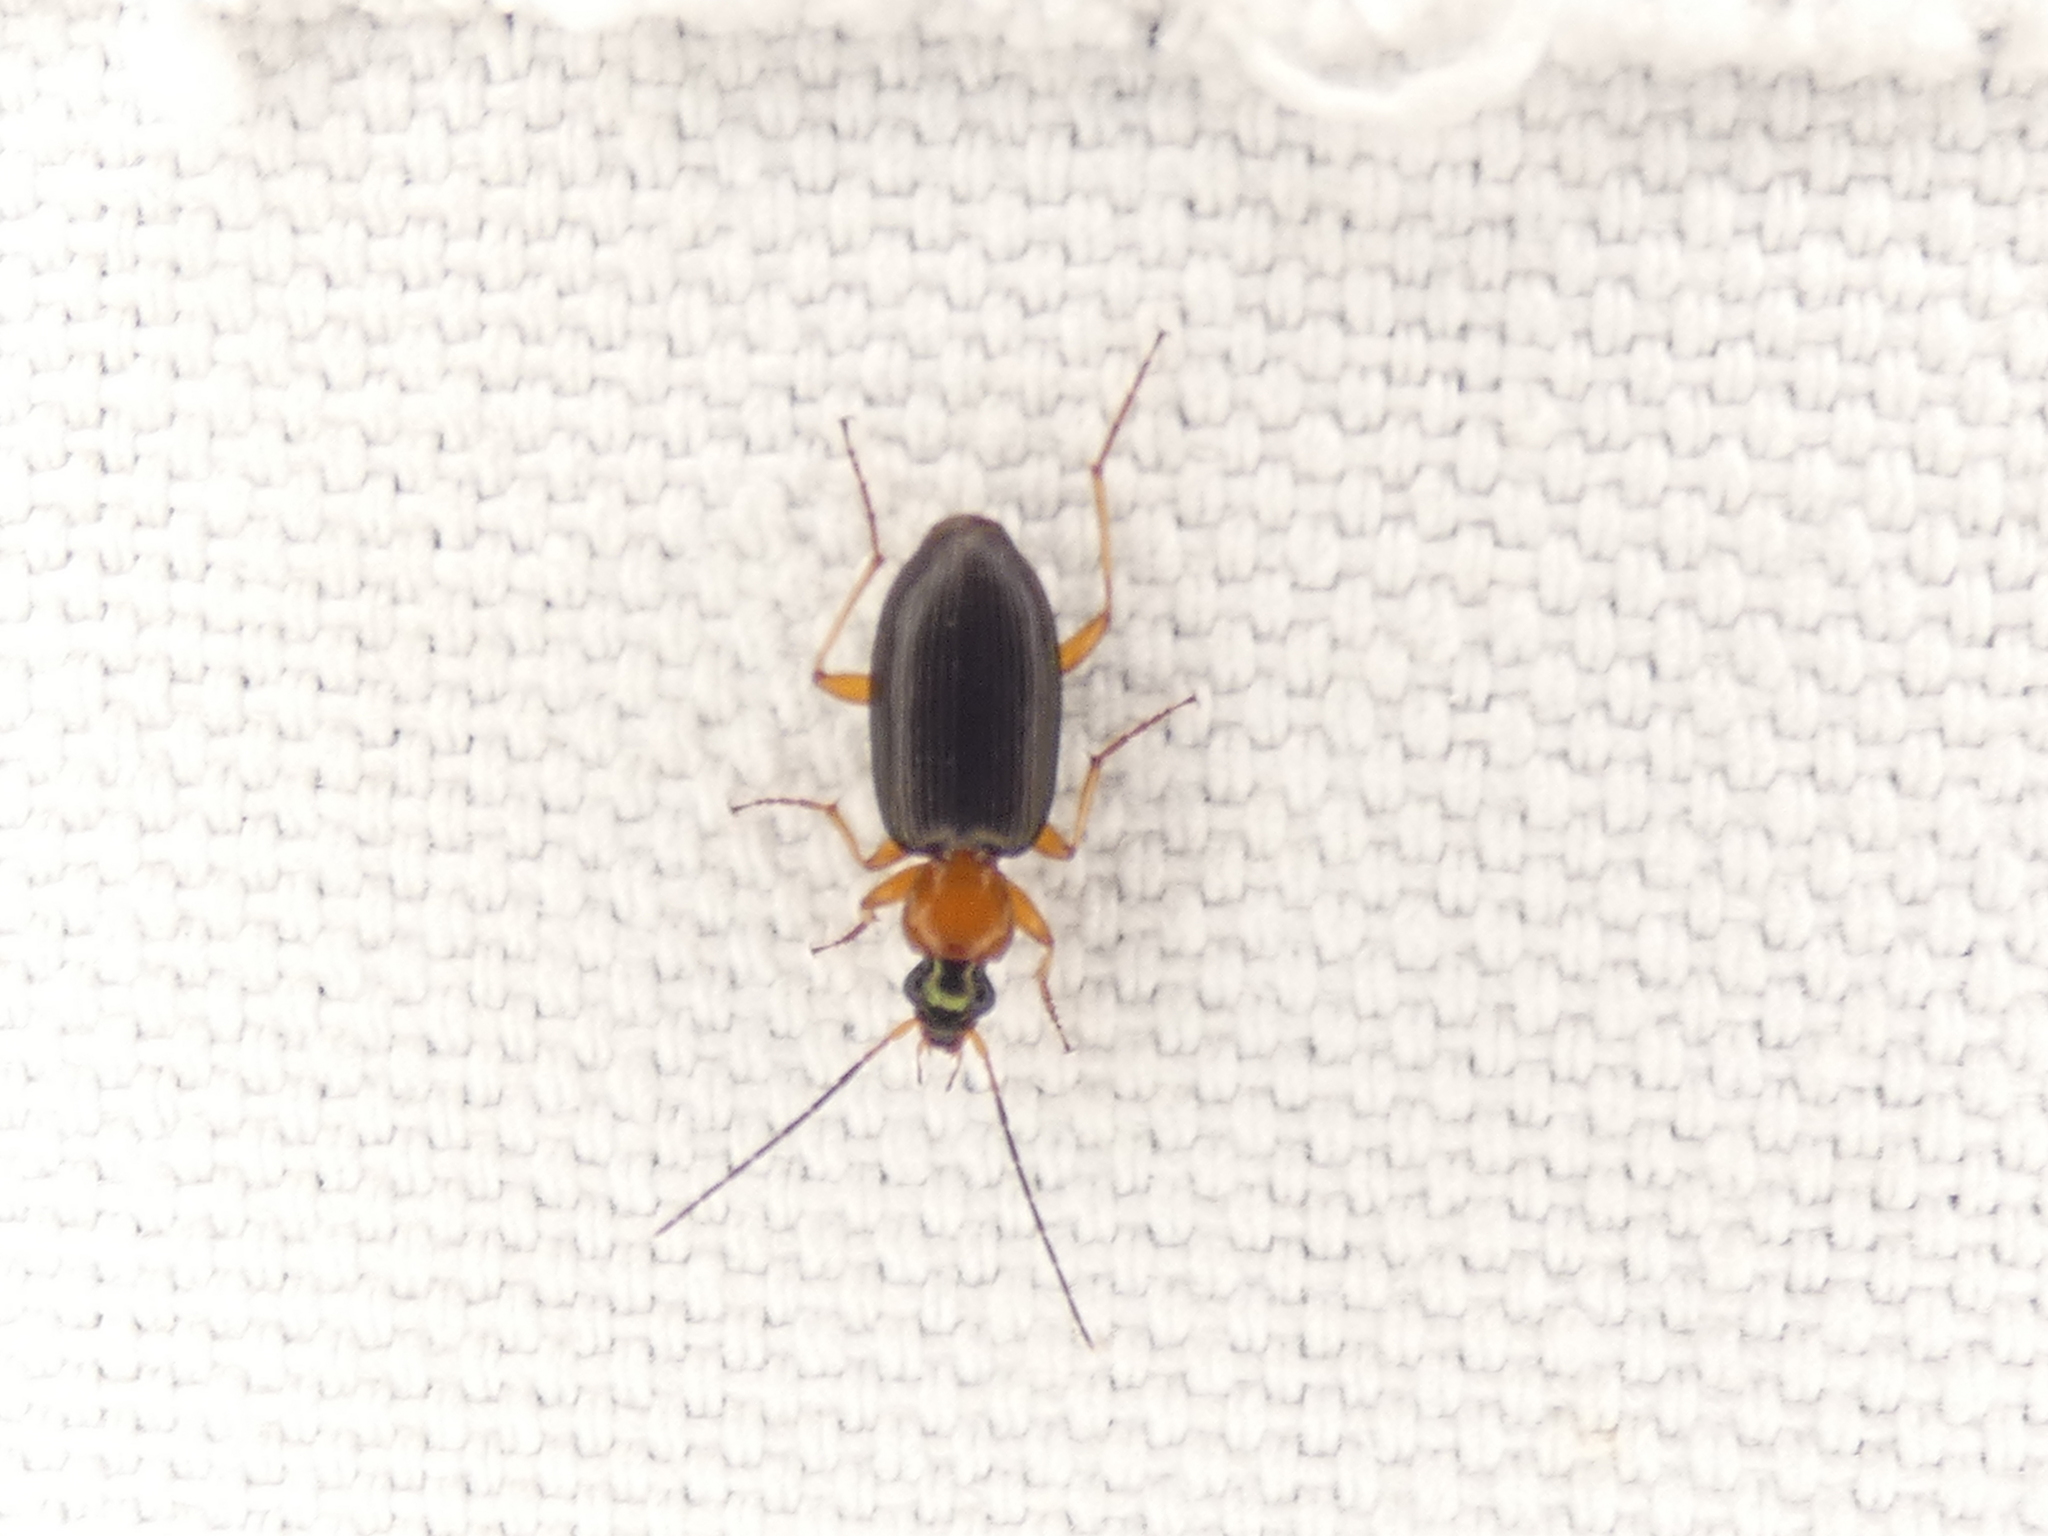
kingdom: Animalia
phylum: Arthropoda
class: Insecta
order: Coleoptera
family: Carabidae
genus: Agonum
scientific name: Agonum decorum
